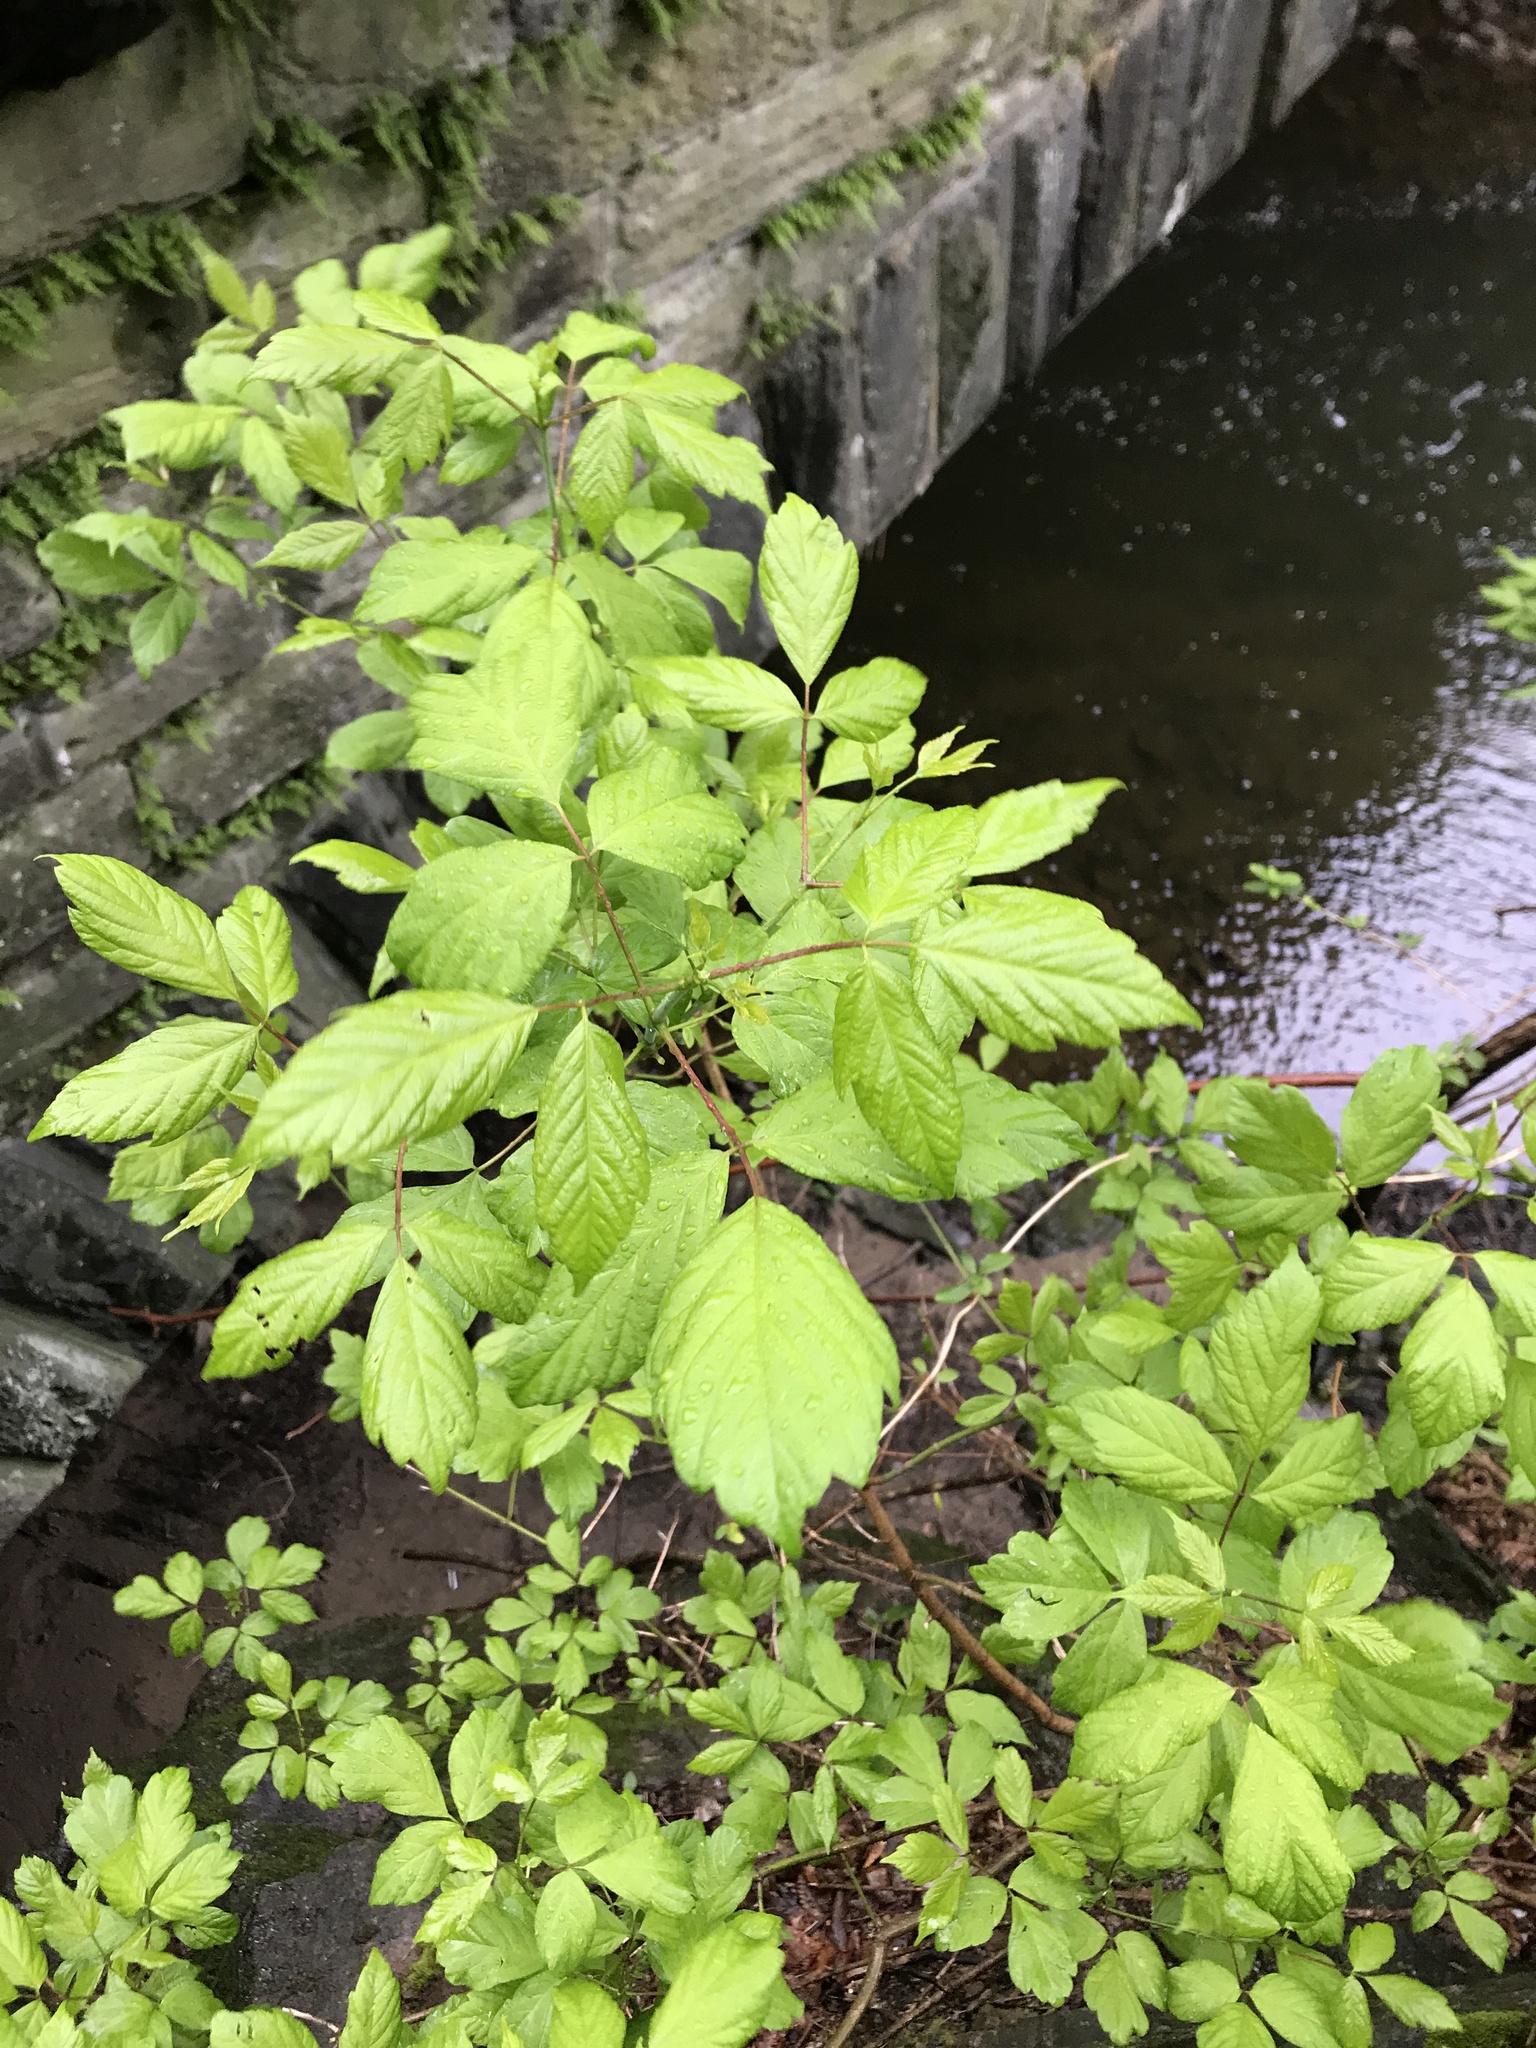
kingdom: Plantae
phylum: Tracheophyta
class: Magnoliopsida
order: Sapindales
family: Sapindaceae
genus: Acer
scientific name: Acer negundo
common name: Ashleaf maple
